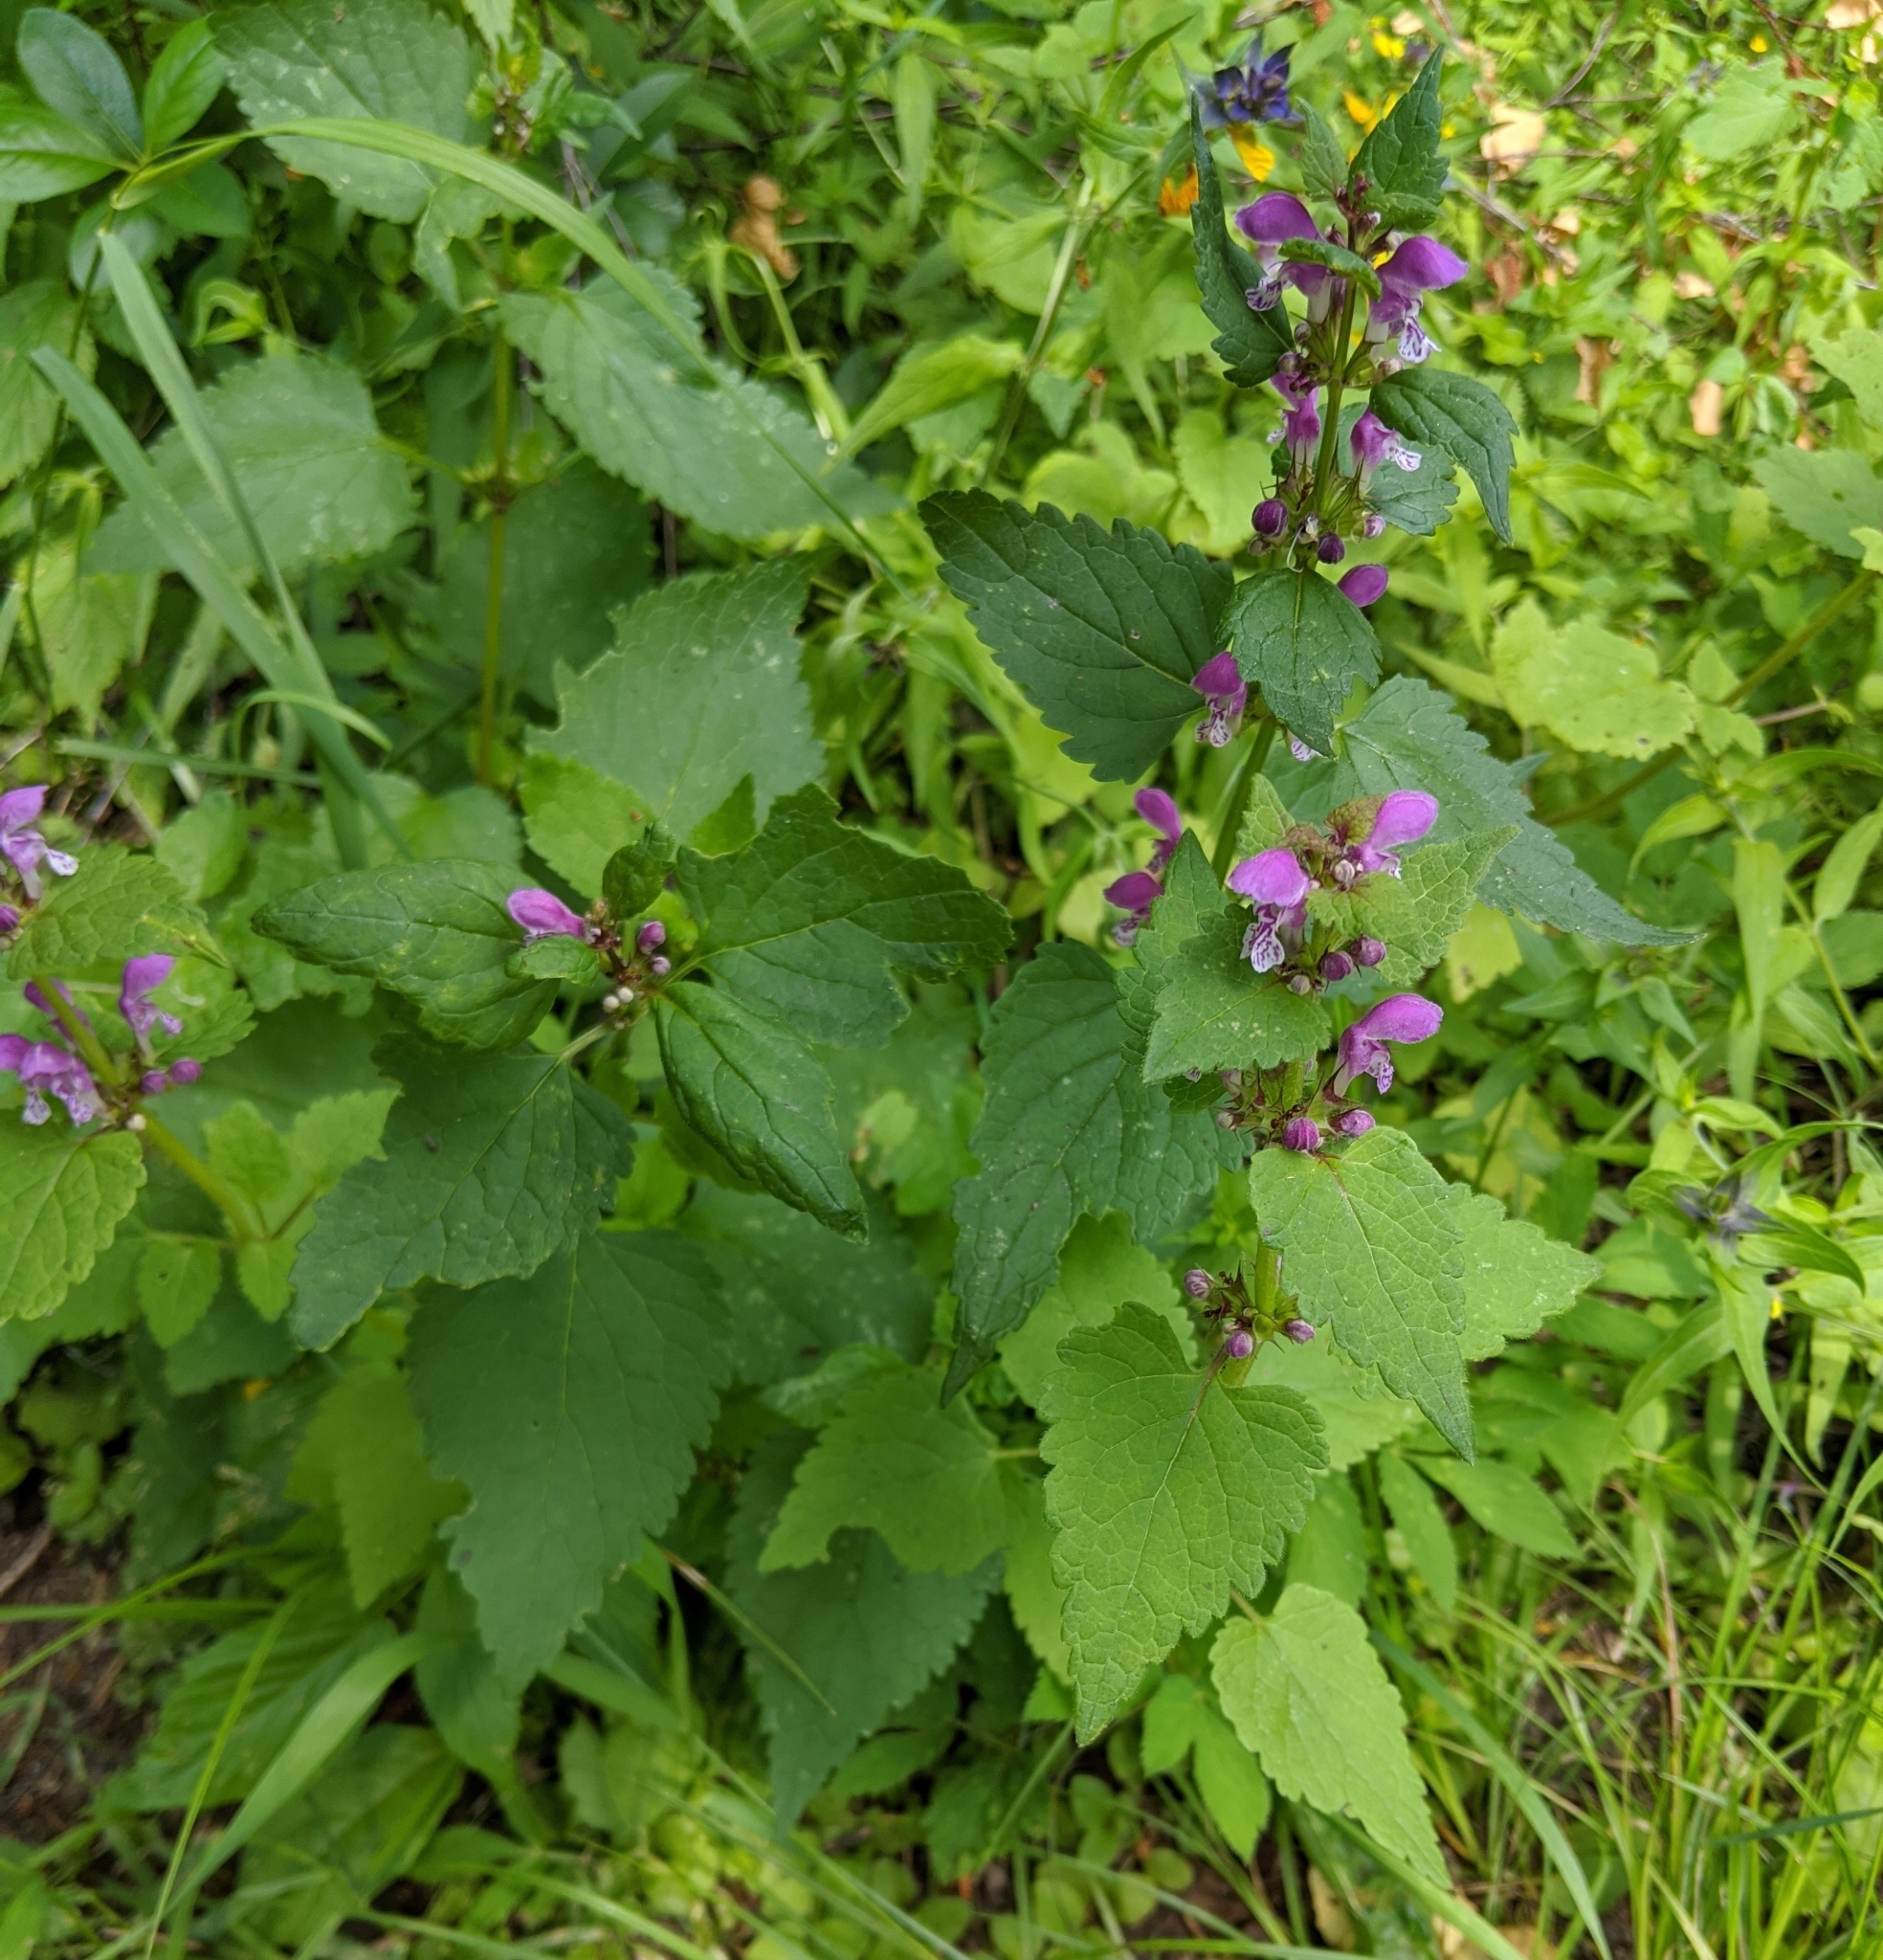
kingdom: Plantae
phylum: Tracheophyta
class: Magnoliopsida
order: Lamiales
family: Lamiaceae
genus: Lamium
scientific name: Lamium maculatum
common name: Spotted dead-nettle
